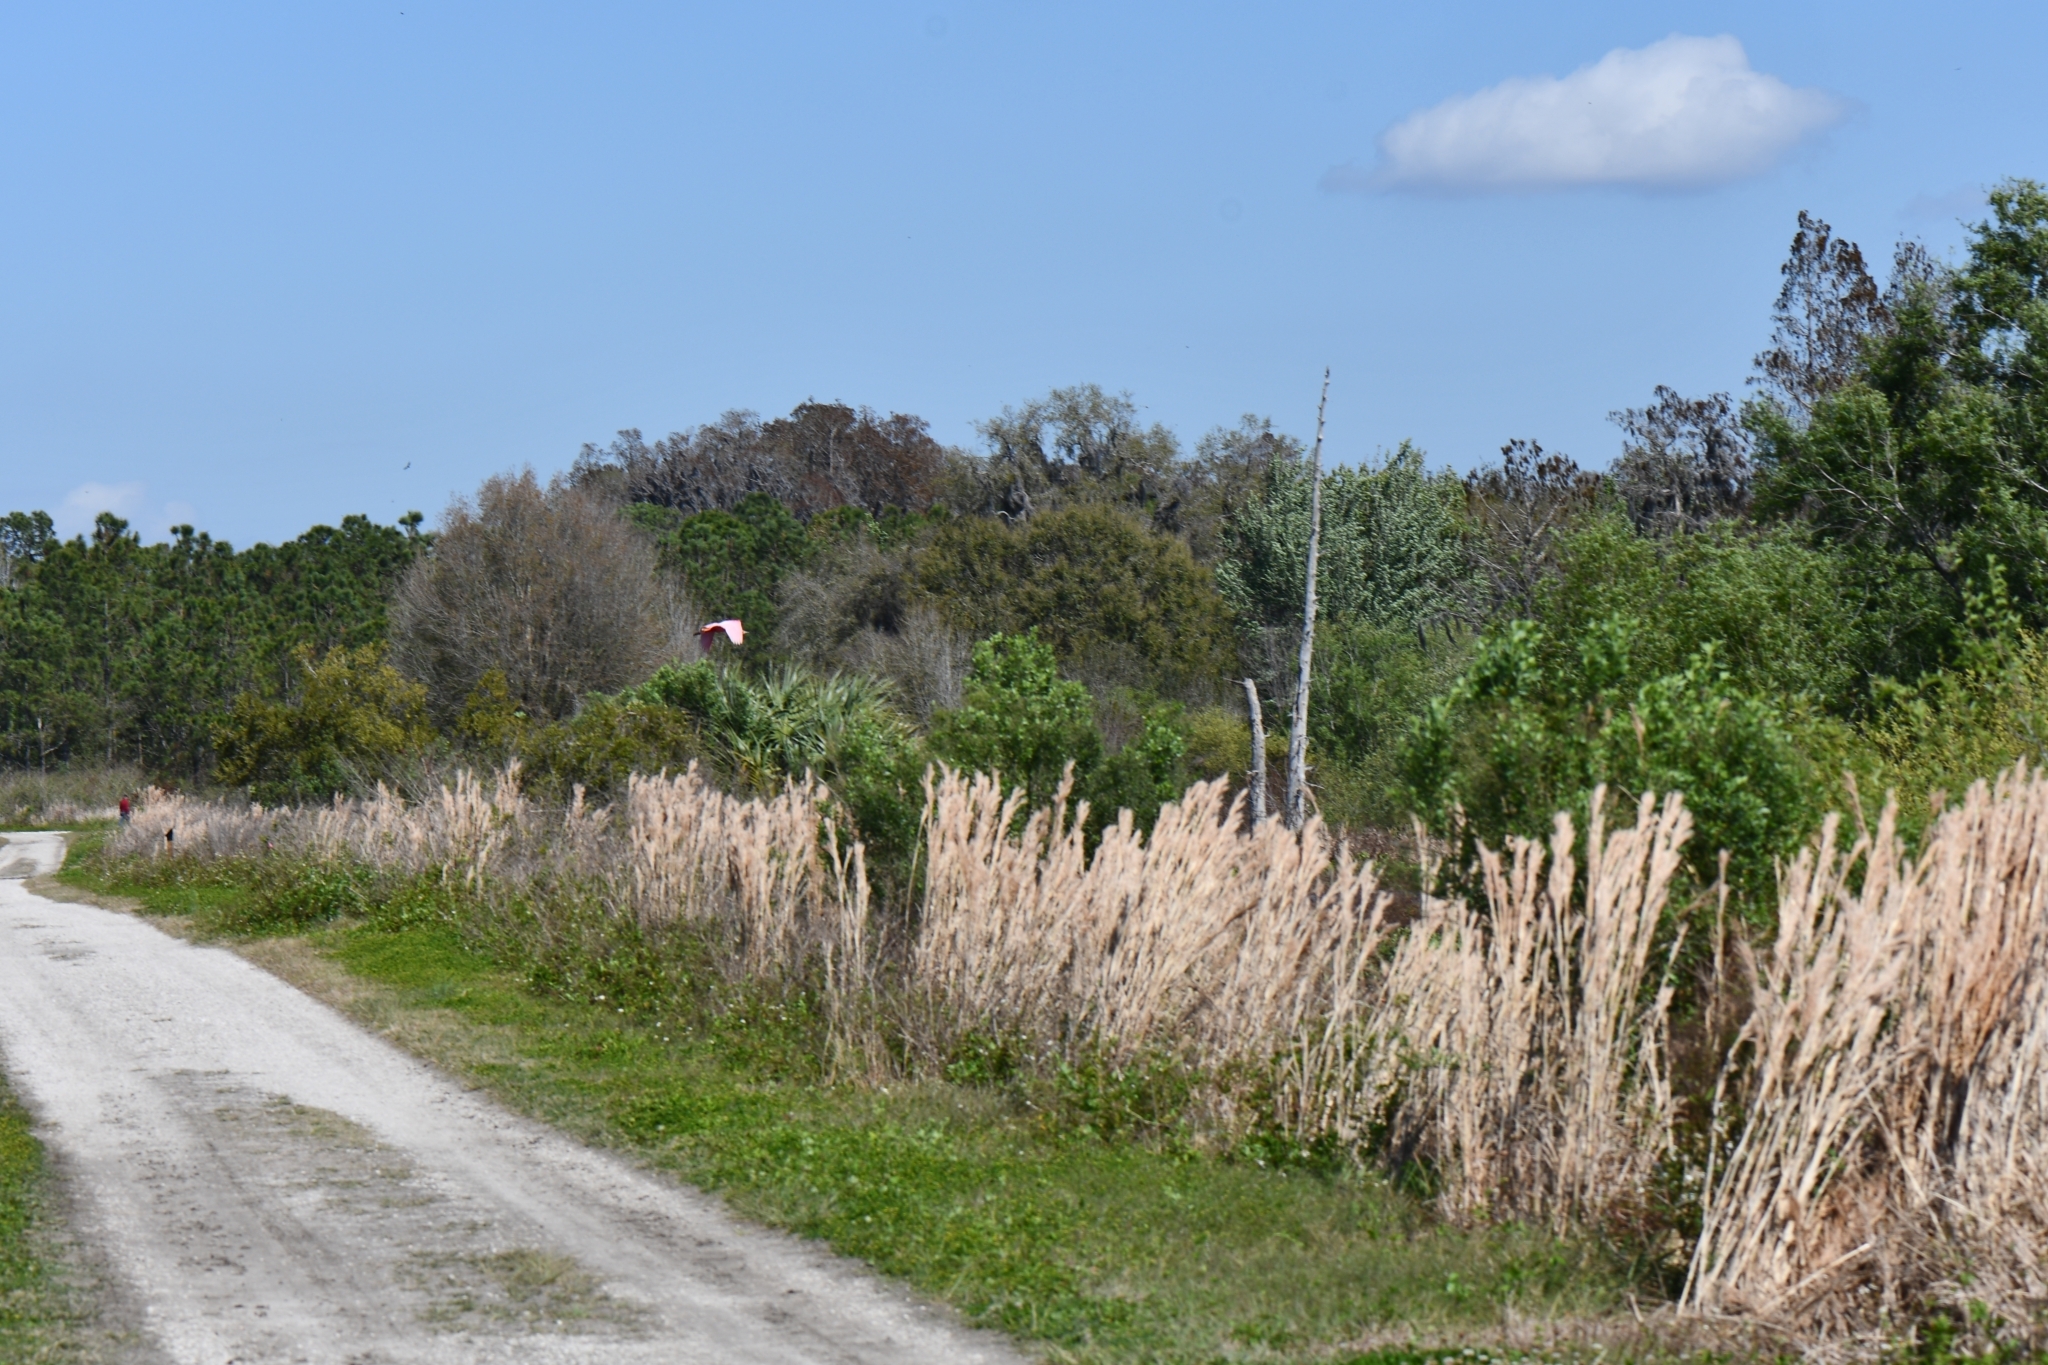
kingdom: Animalia
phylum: Chordata
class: Aves
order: Pelecaniformes
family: Threskiornithidae
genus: Platalea
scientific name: Platalea ajaja
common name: Roseate spoonbill
